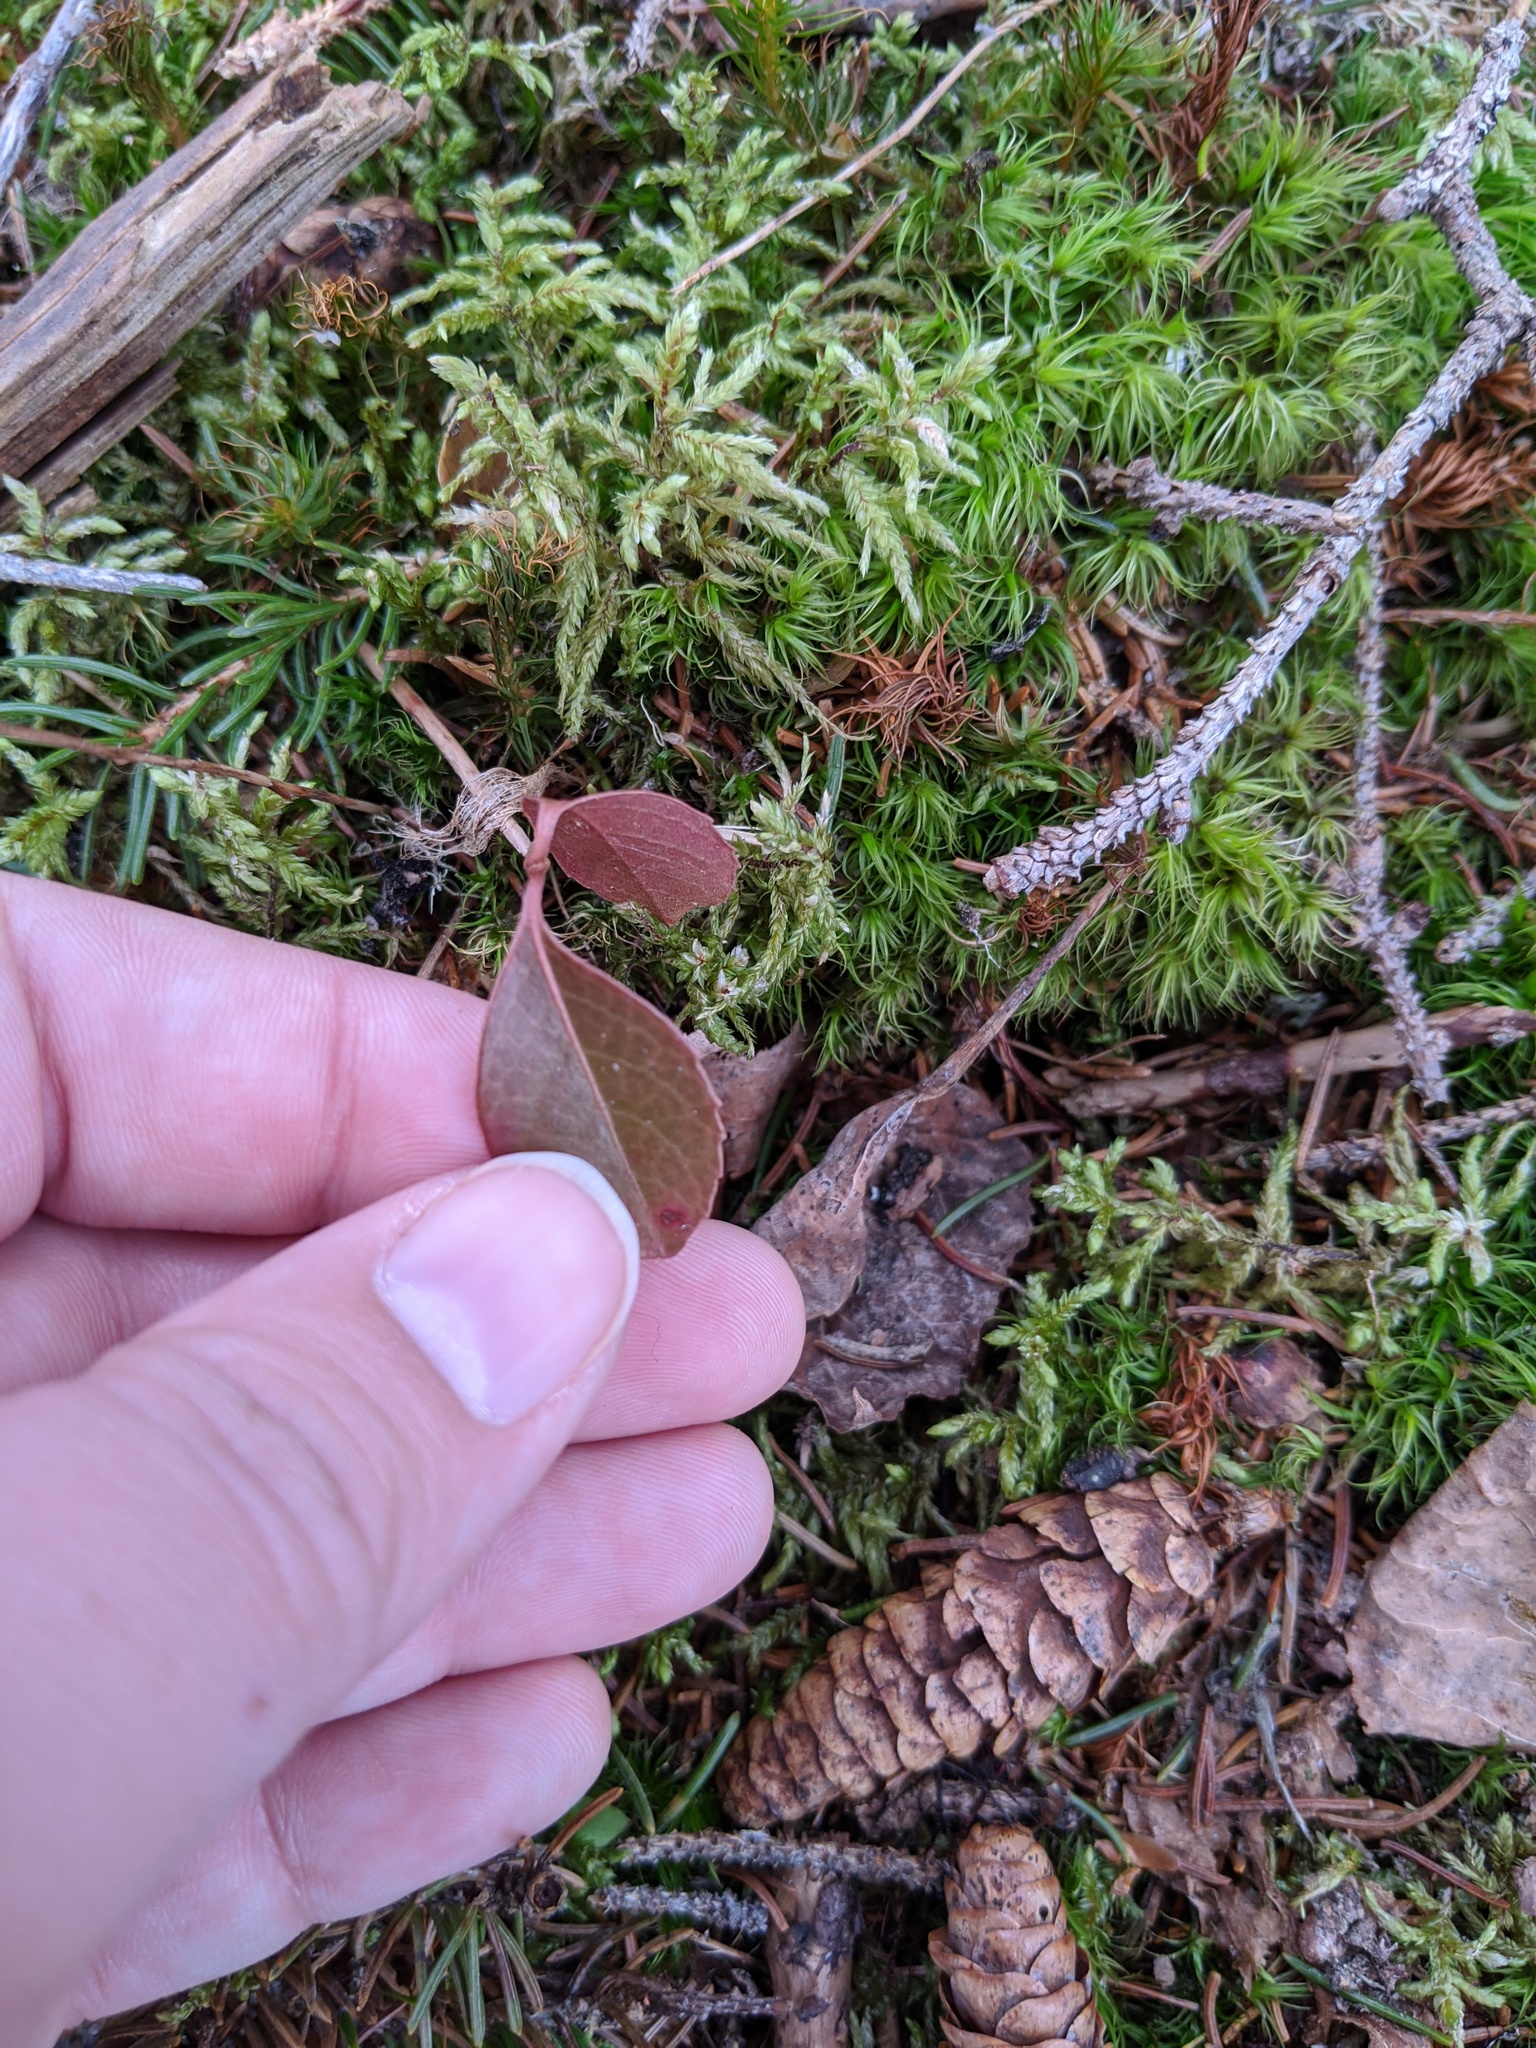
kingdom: Plantae
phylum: Tracheophyta
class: Magnoliopsida
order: Ericales
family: Ericaceae
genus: Gaultheria
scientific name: Gaultheria procumbens
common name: Checkerberry
